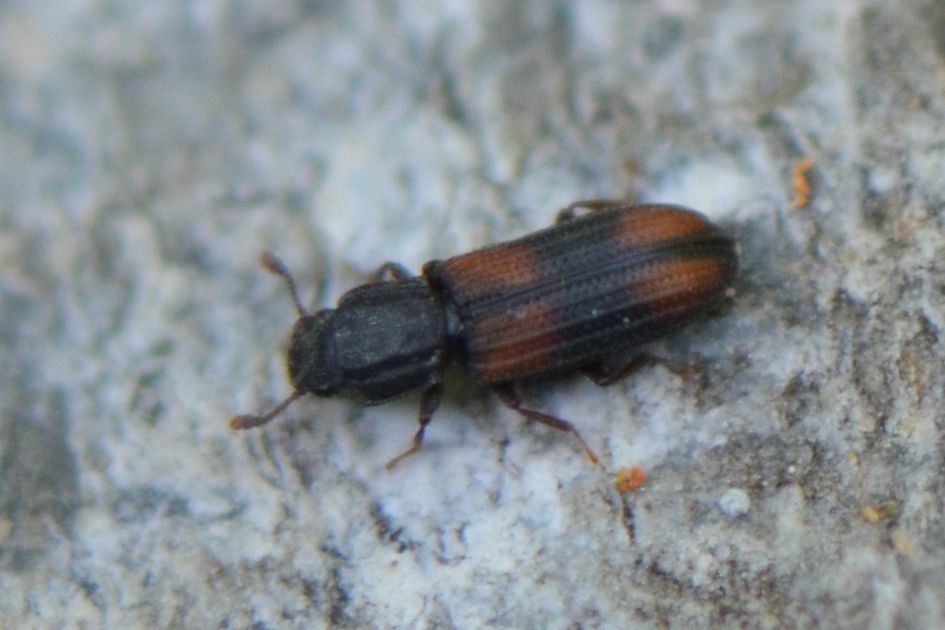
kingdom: Animalia
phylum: Arthropoda
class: Insecta
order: Coleoptera
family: Zopheridae
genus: Bitoma
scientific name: Bitoma crenata
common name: Bark beetle
